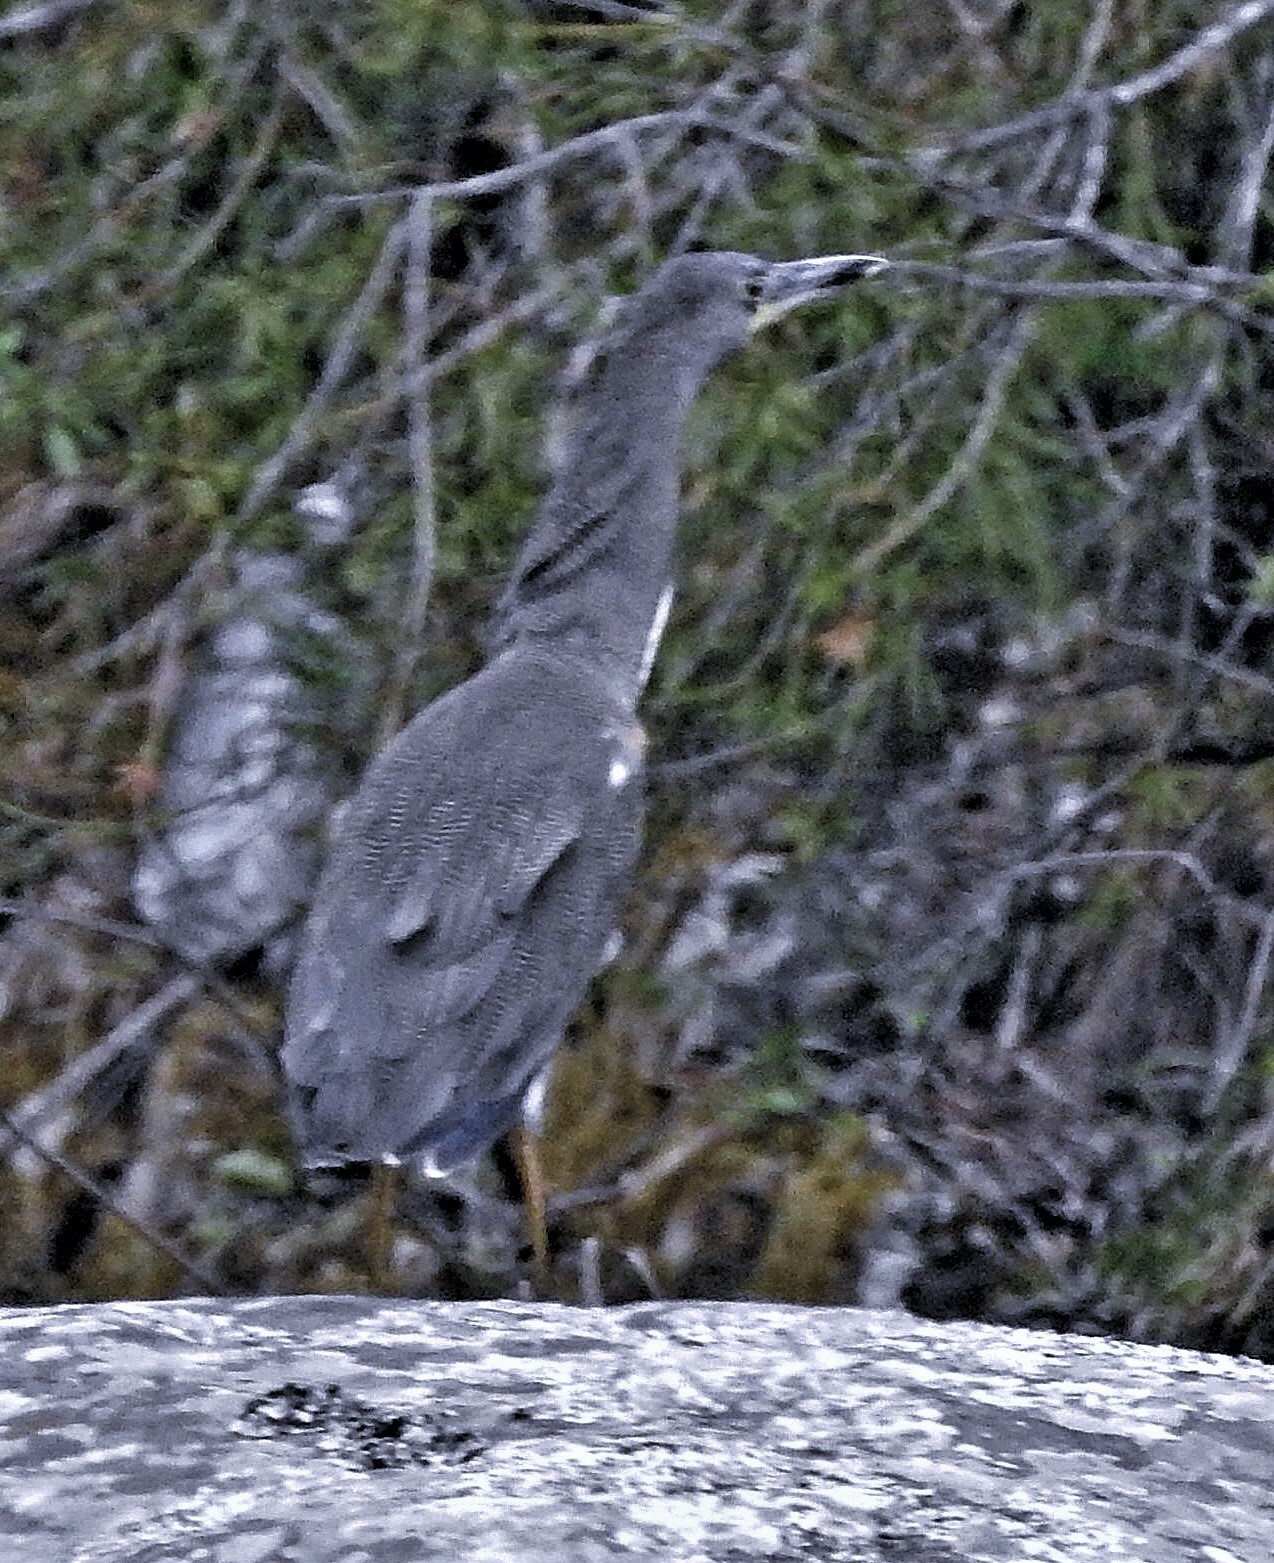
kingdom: Animalia
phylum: Chordata
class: Aves
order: Pelecaniformes
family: Ardeidae
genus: Tigrisoma
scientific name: Tigrisoma fasciatum
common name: Fasciated tiger-heron
